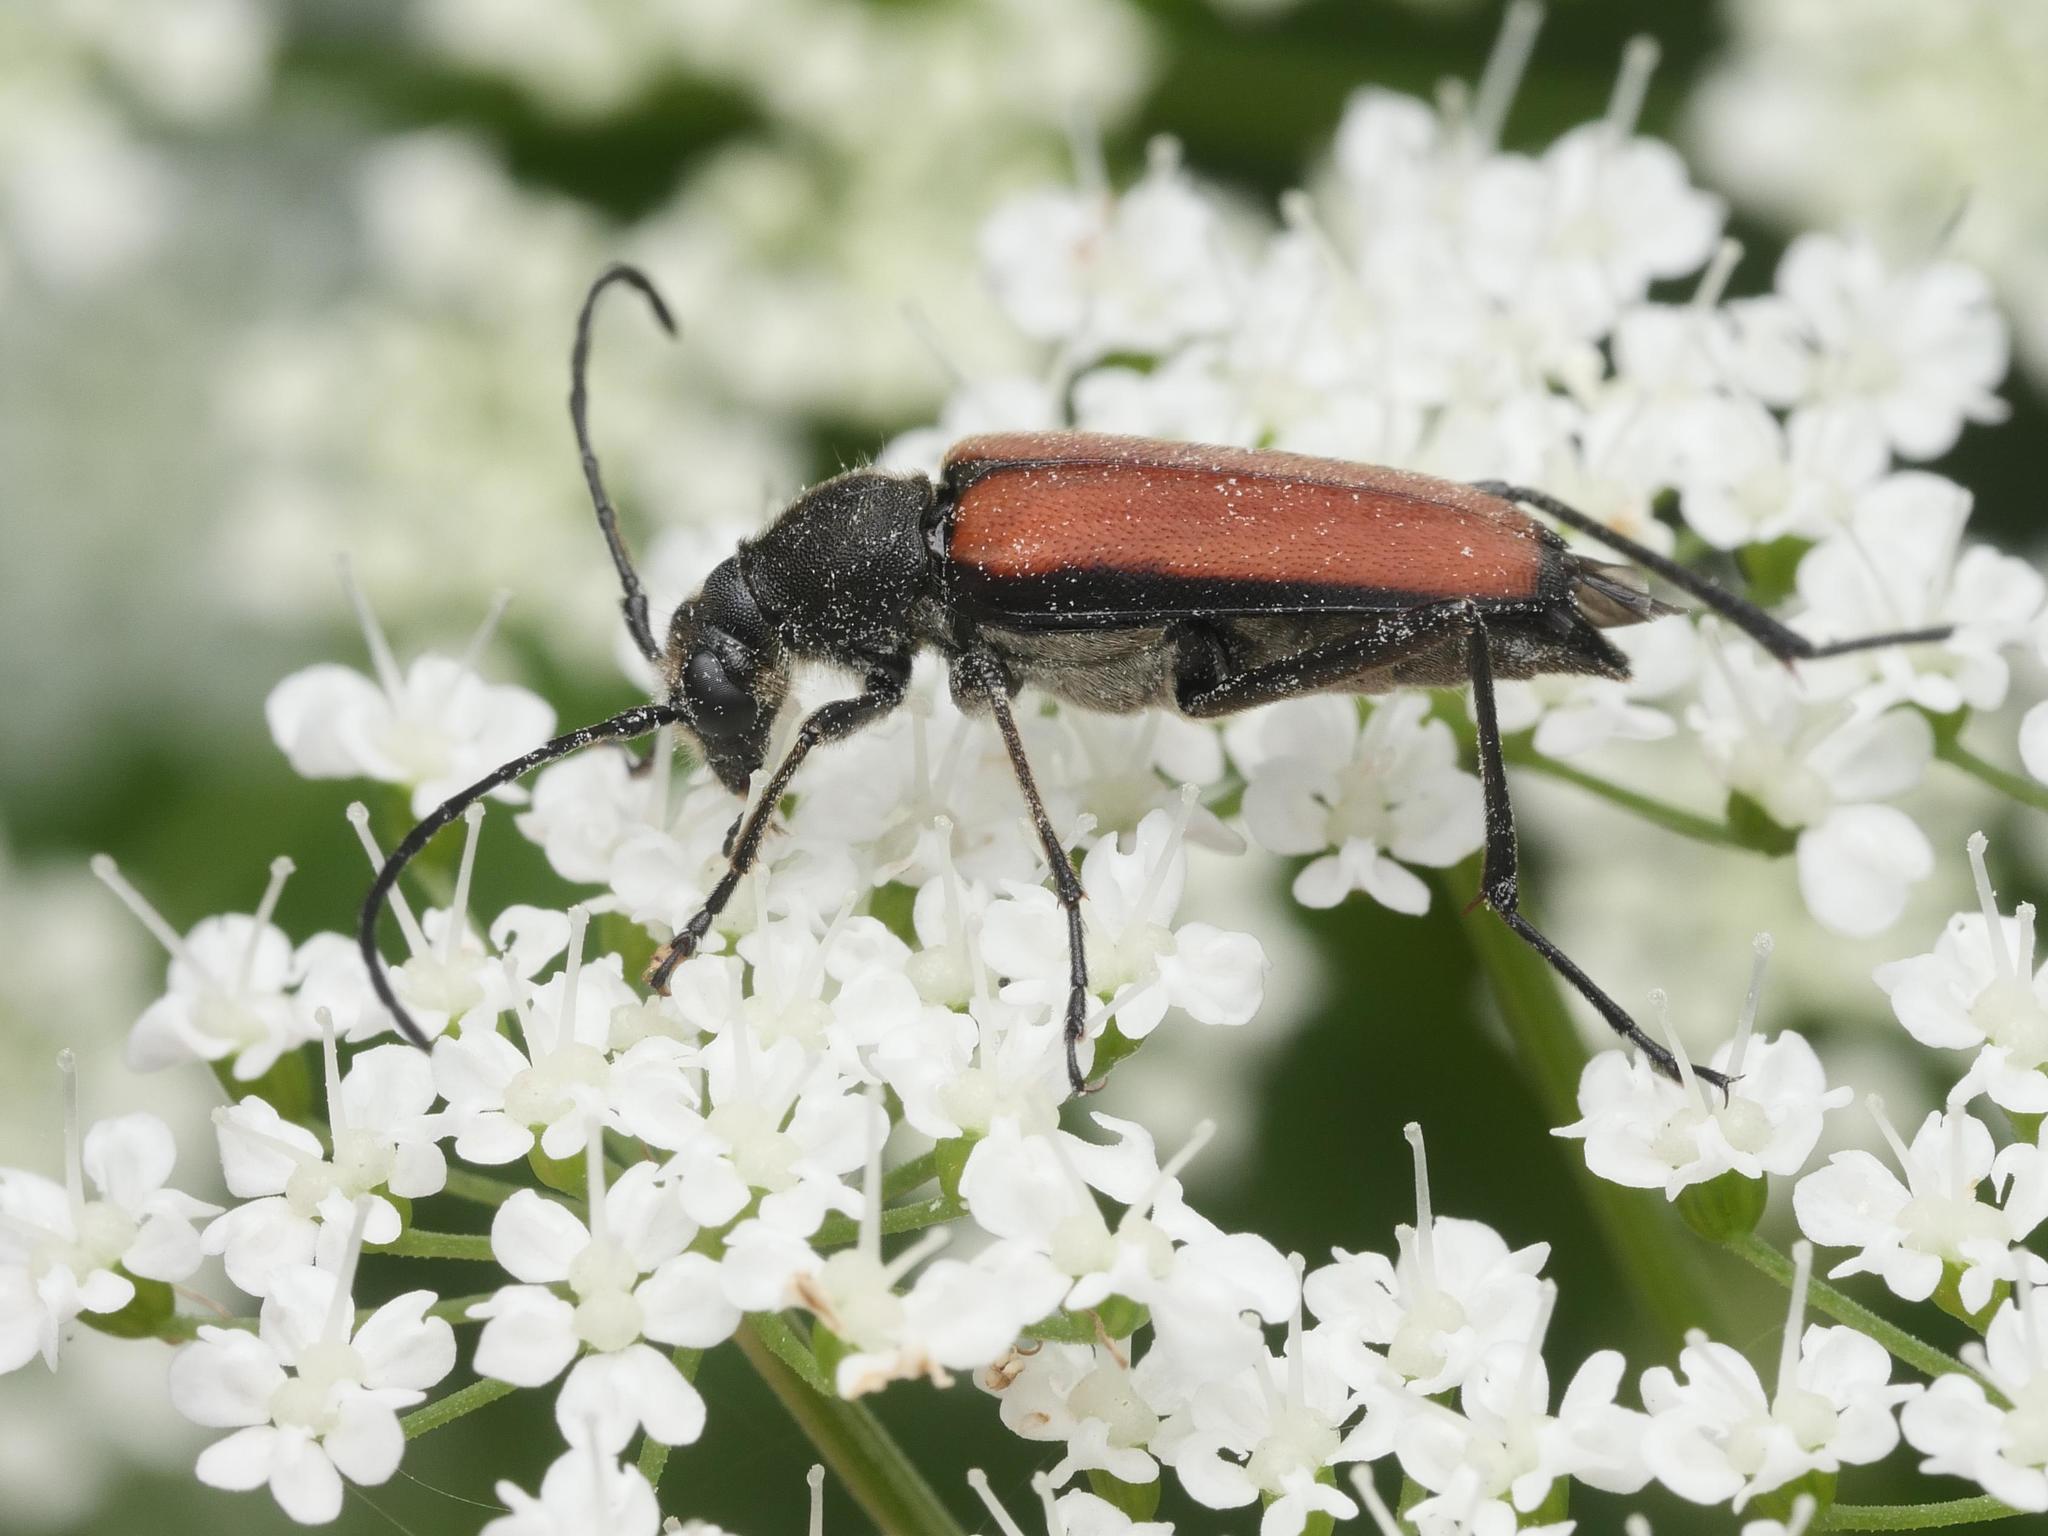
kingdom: Animalia
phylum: Arthropoda
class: Insecta
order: Coleoptera
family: Cerambycidae
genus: Anastrangalia
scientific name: Anastrangalia dubia
